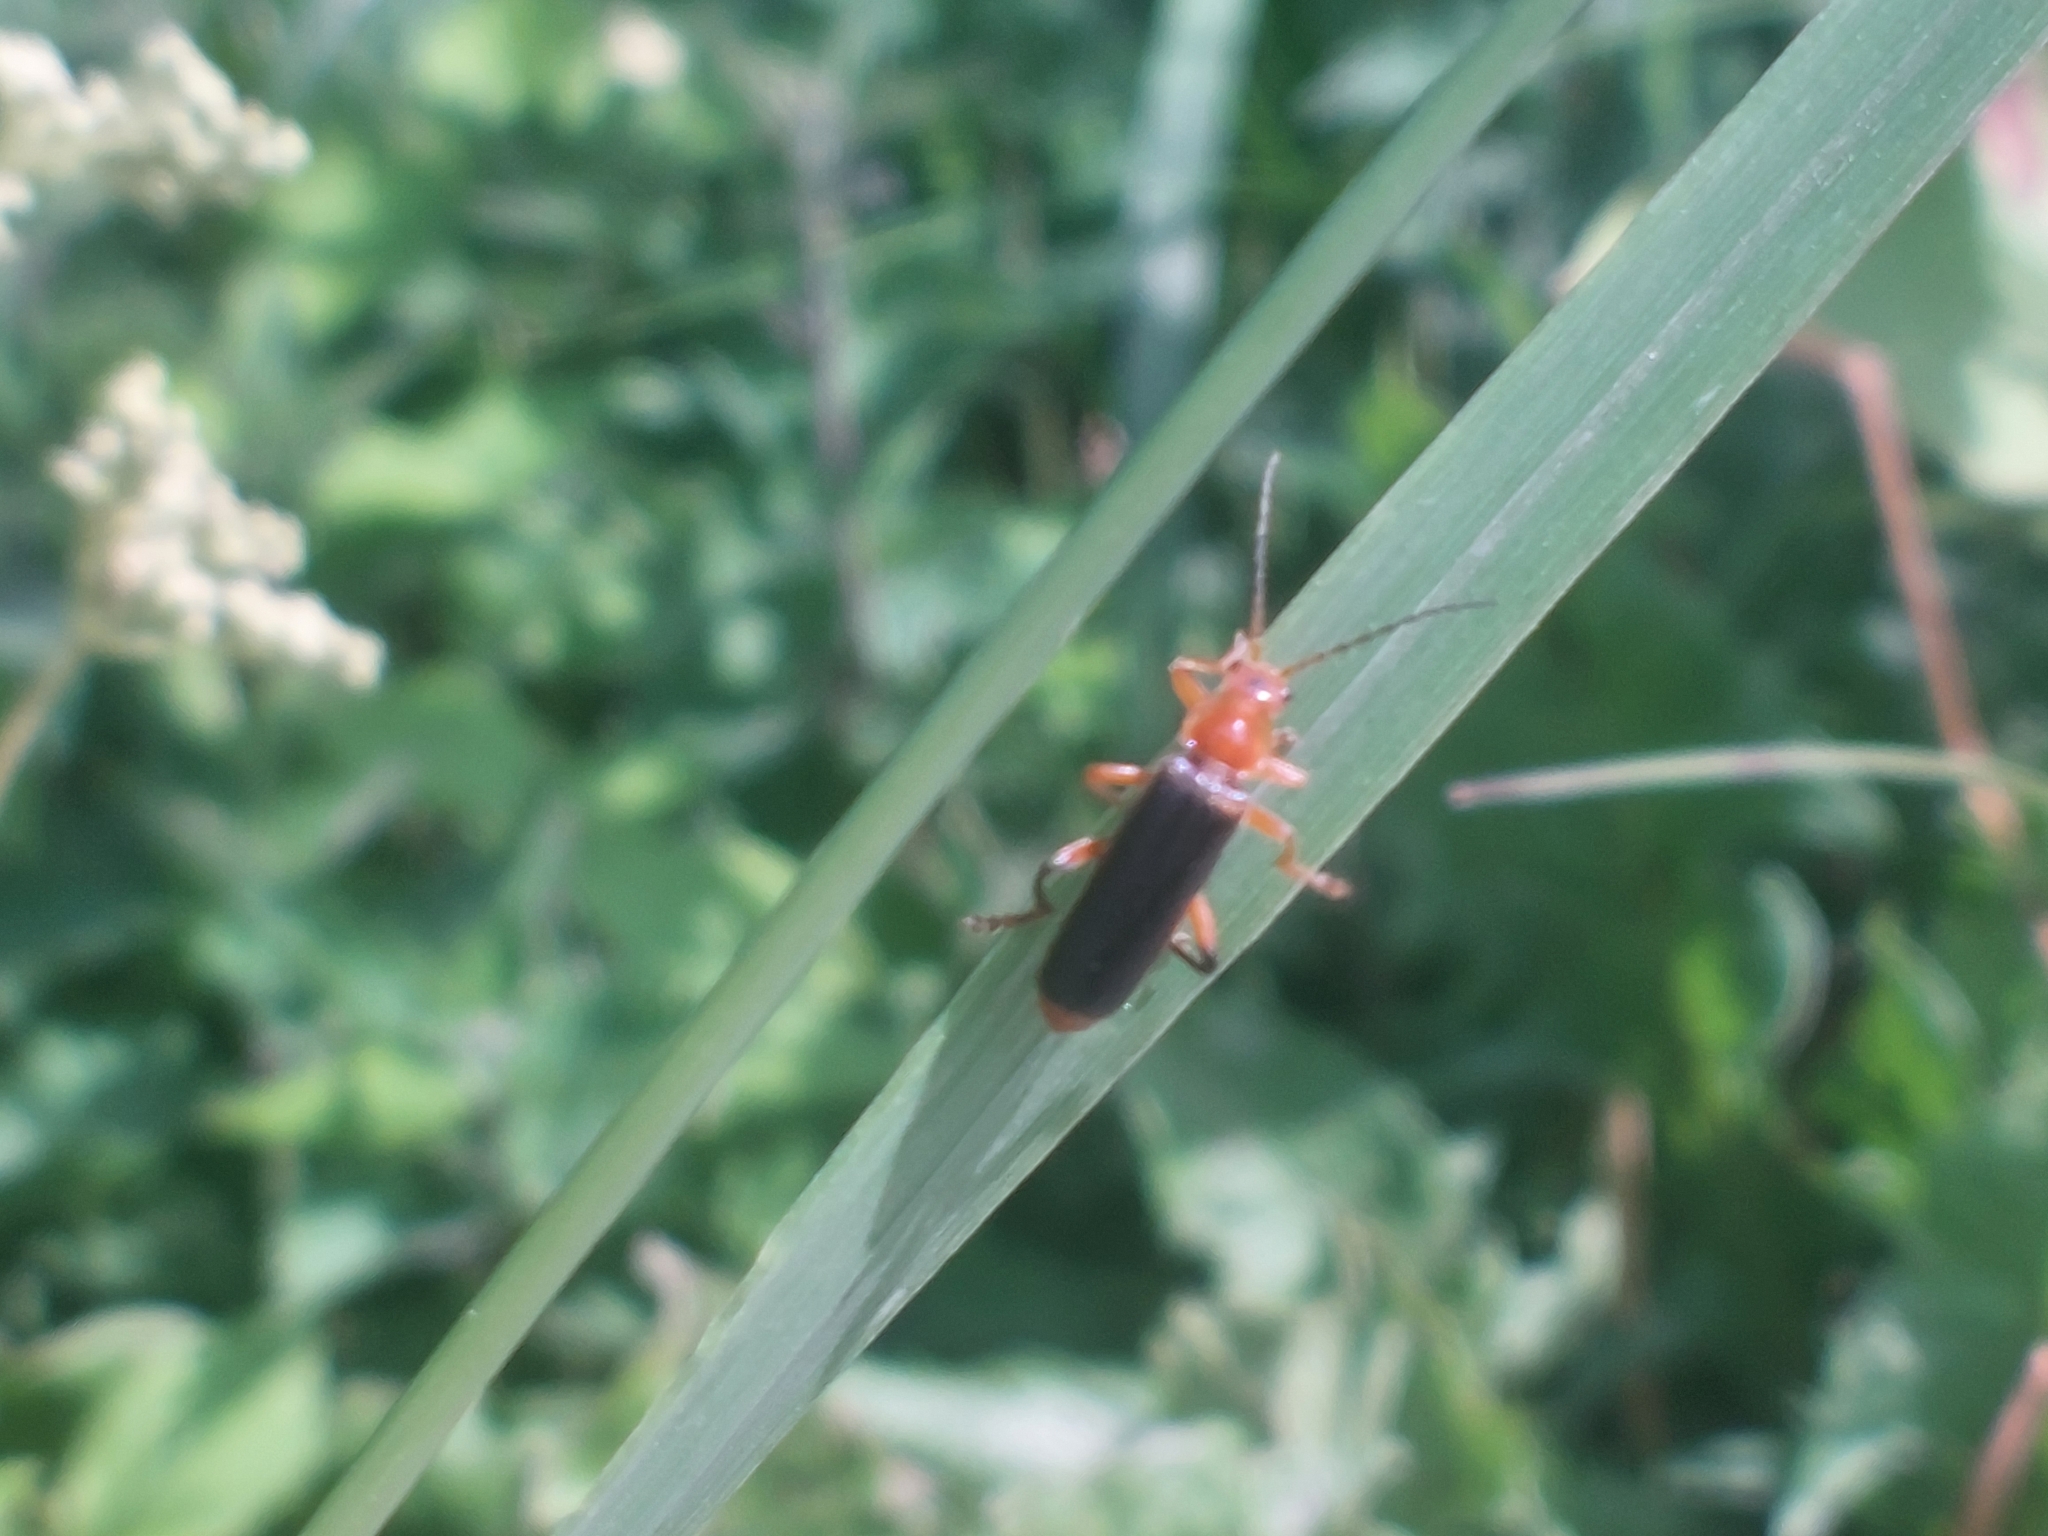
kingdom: Animalia
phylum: Arthropoda
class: Insecta
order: Coleoptera
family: Cantharidae
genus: Cantharis
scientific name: Cantharis livida
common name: Livid soldier beetle
